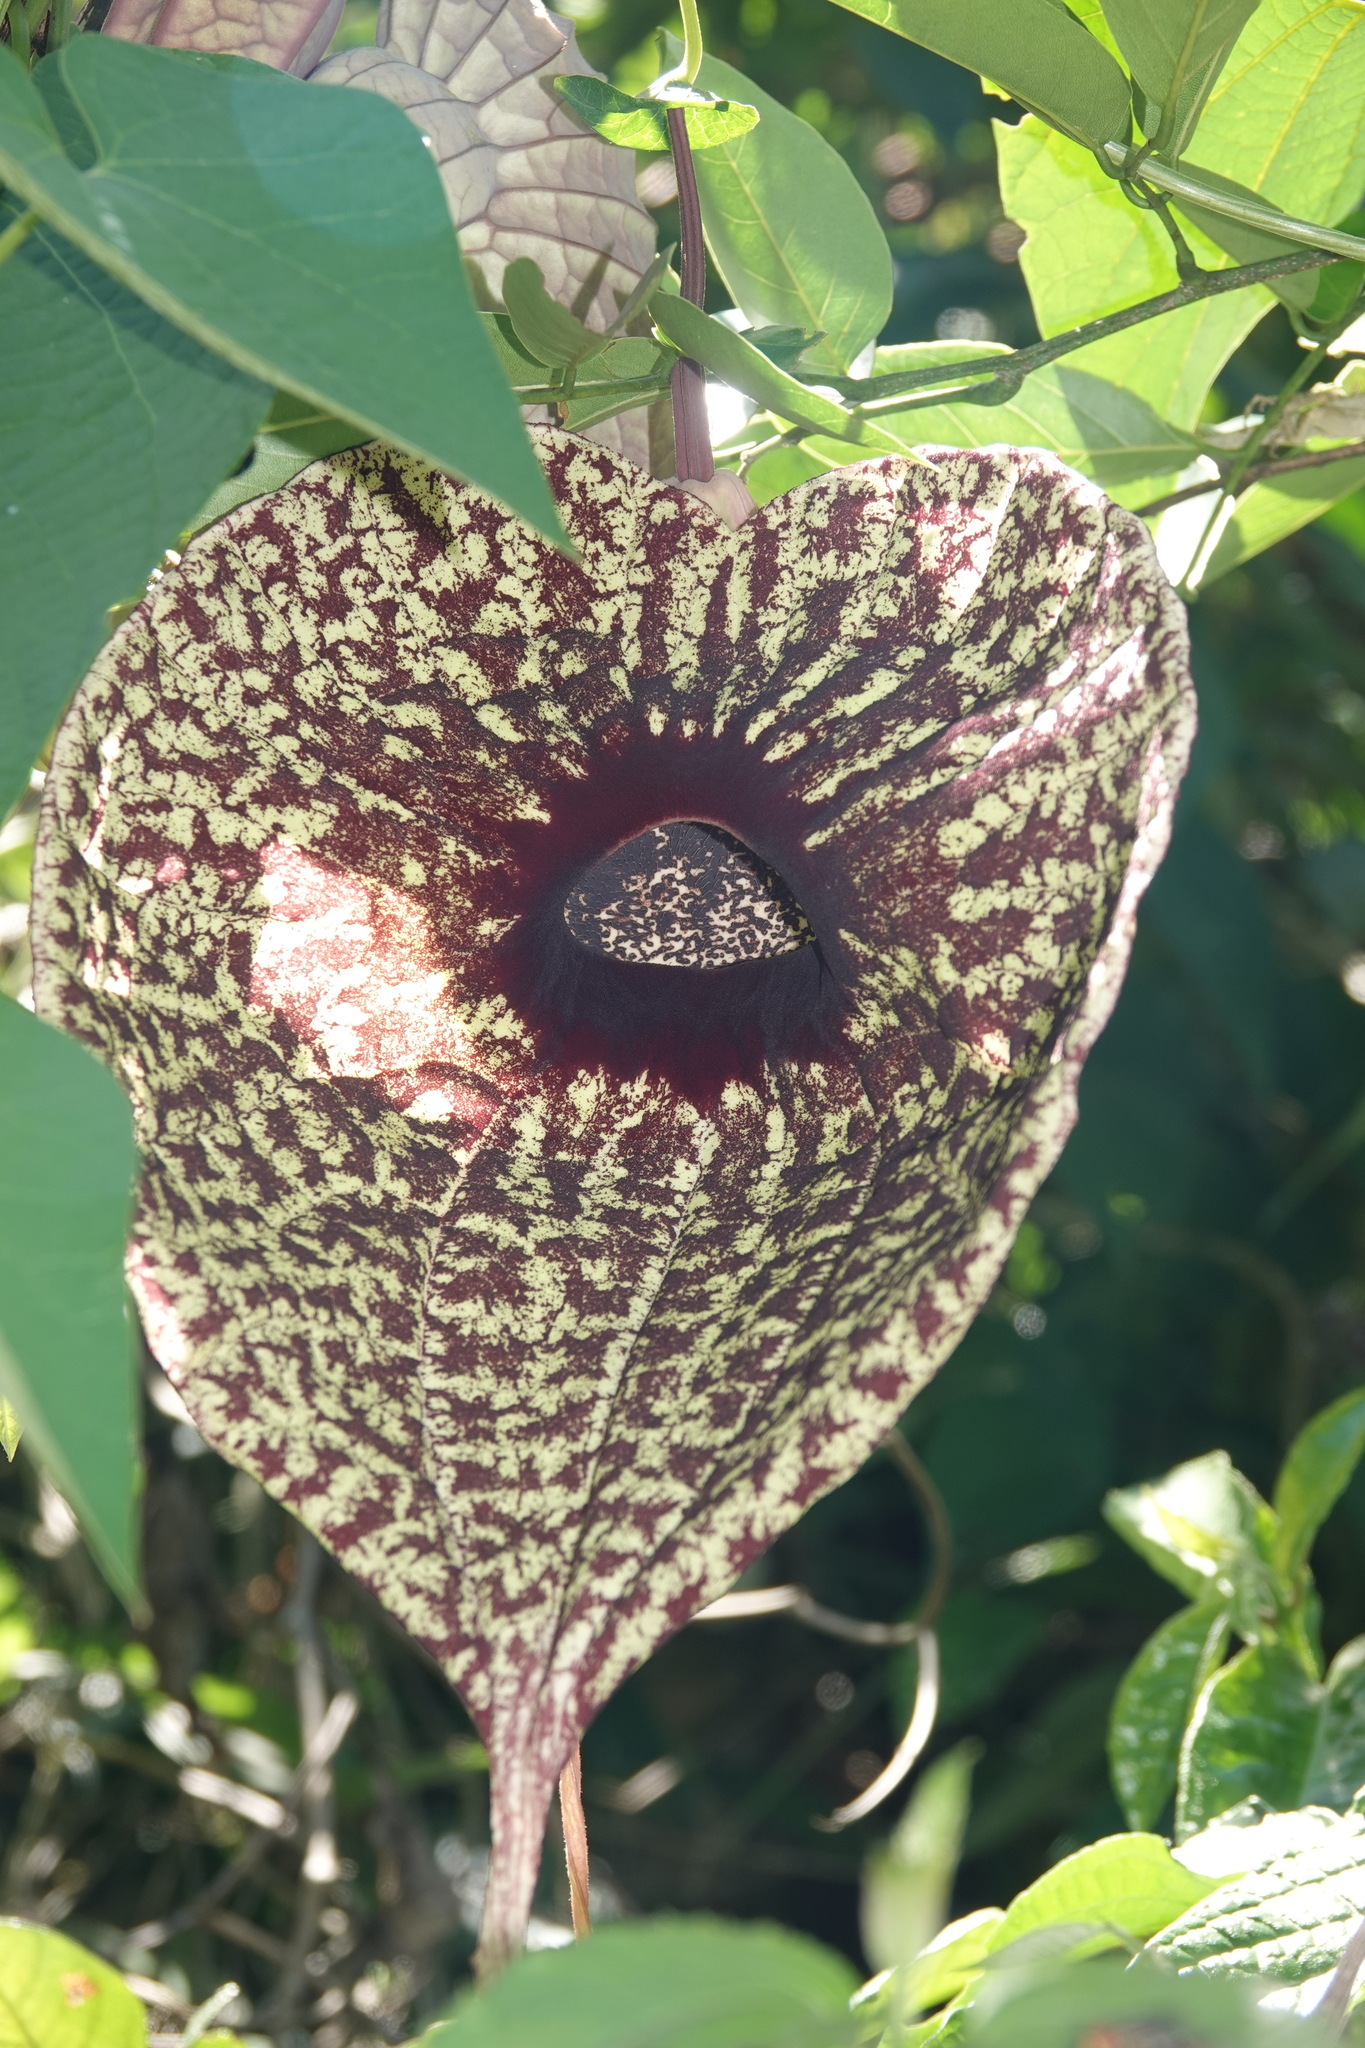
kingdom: Plantae
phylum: Tracheophyta
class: Magnoliopsida
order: Piperales
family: Aristolochiaceae
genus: Aristolochia
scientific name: Aristolochia grandiflora
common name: Pelicanflower
